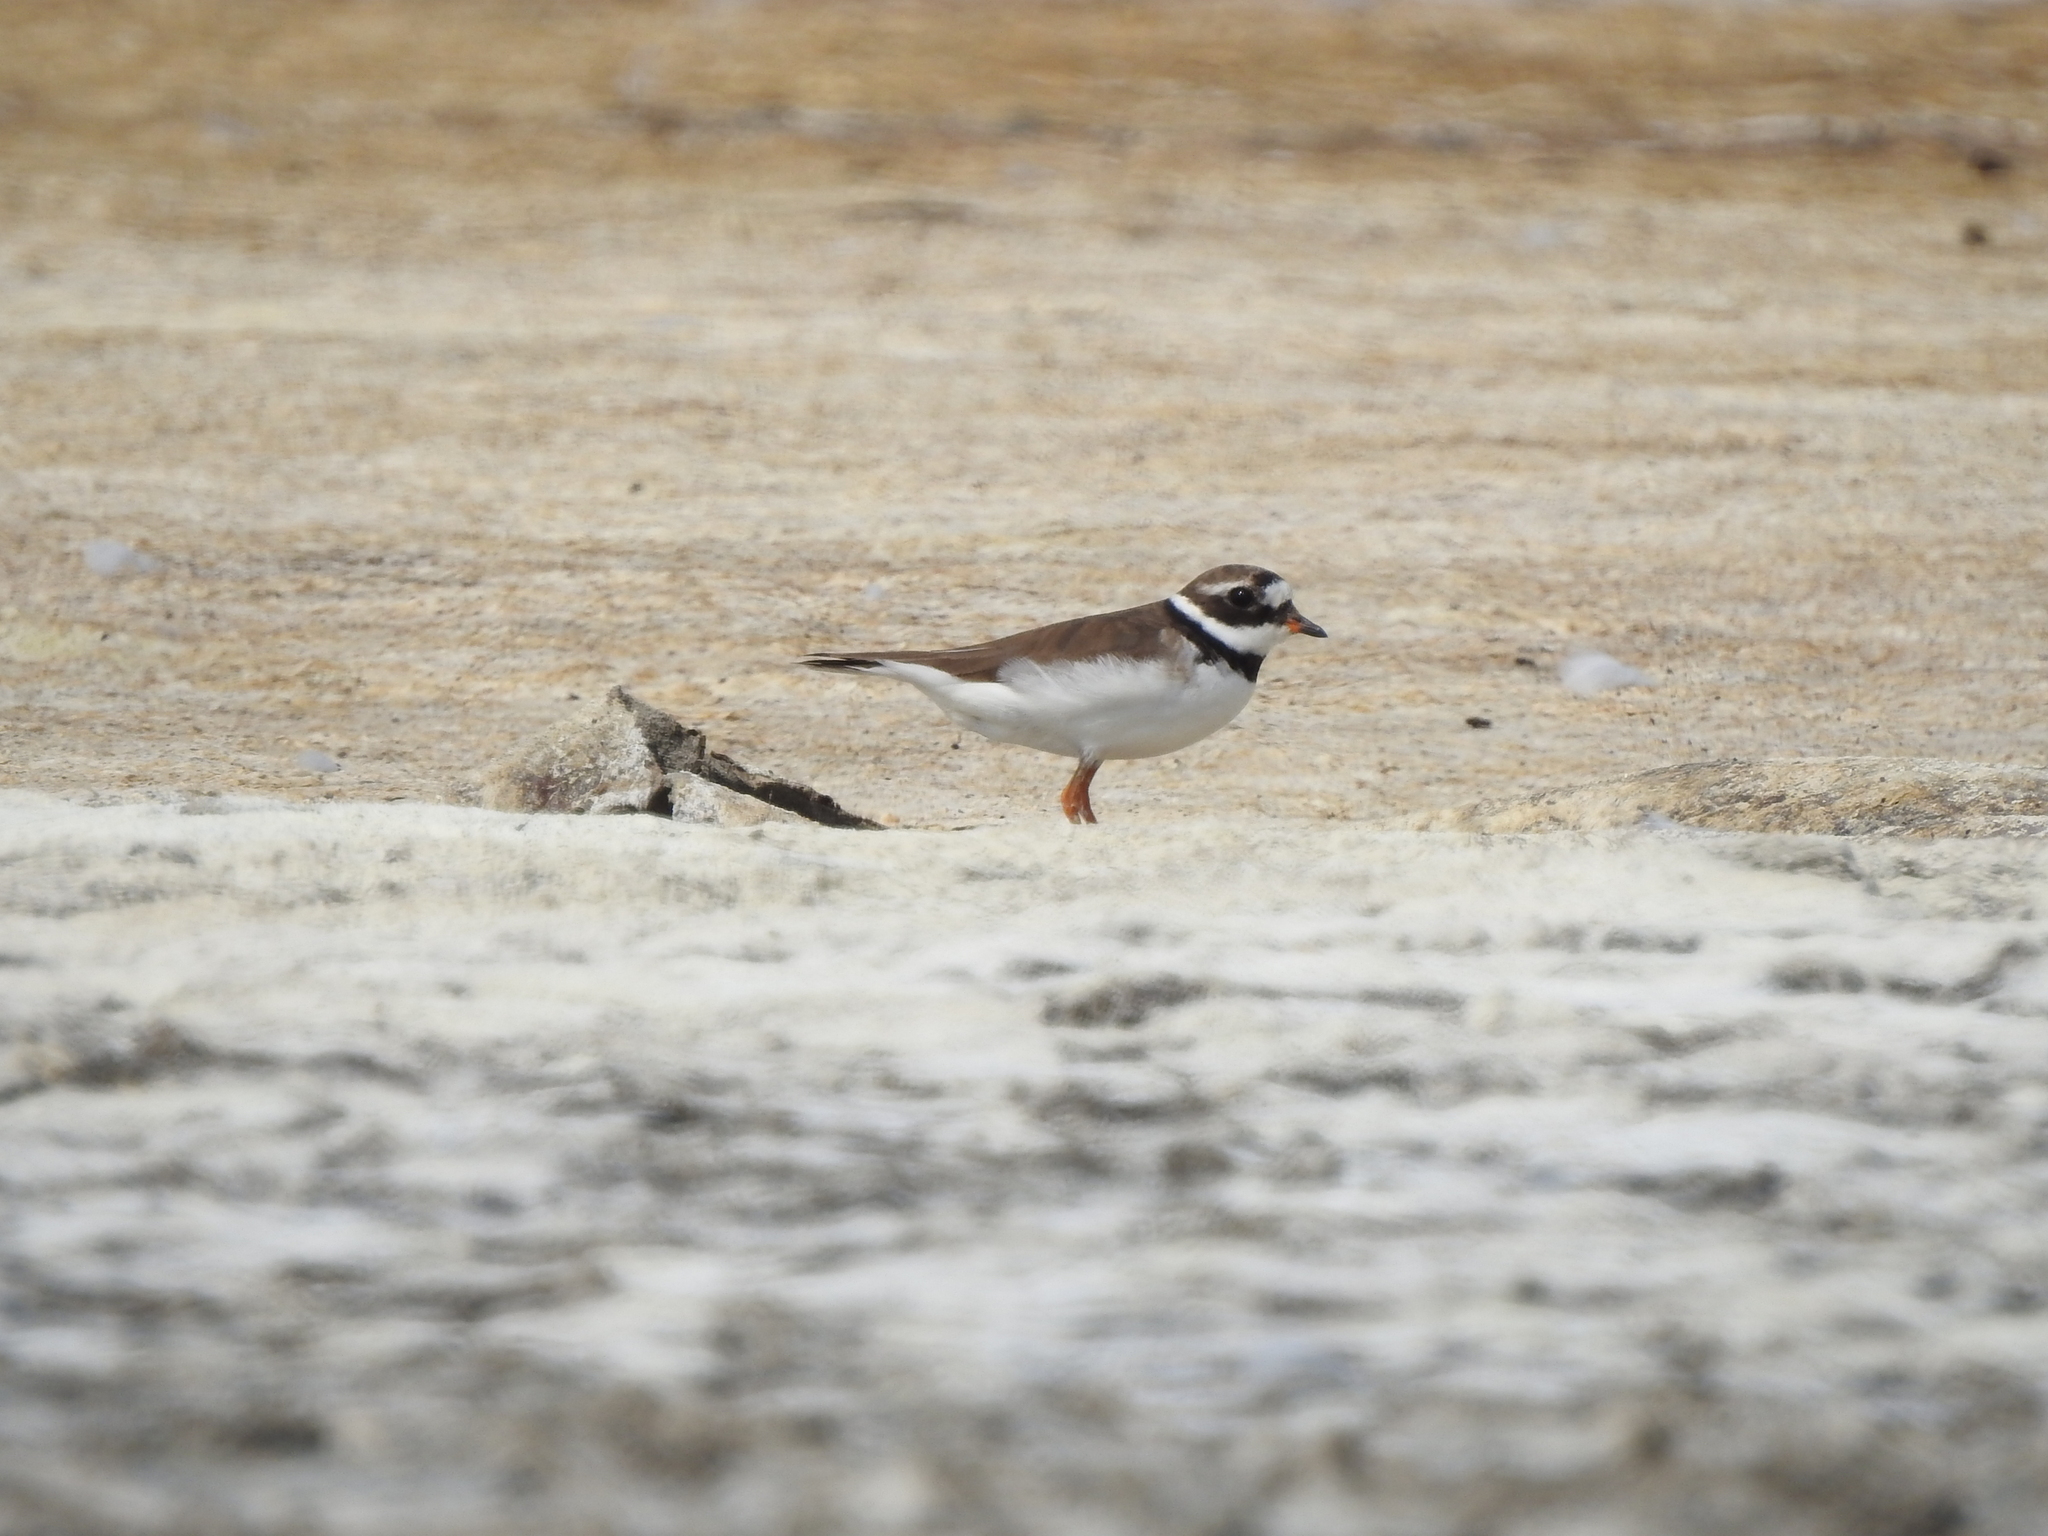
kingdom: Animalia
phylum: Chordata
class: Aves
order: Charadriiformes
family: Charadriidae
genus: Charadrius
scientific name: Charadrius hiaticula
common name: Common ringed plover
